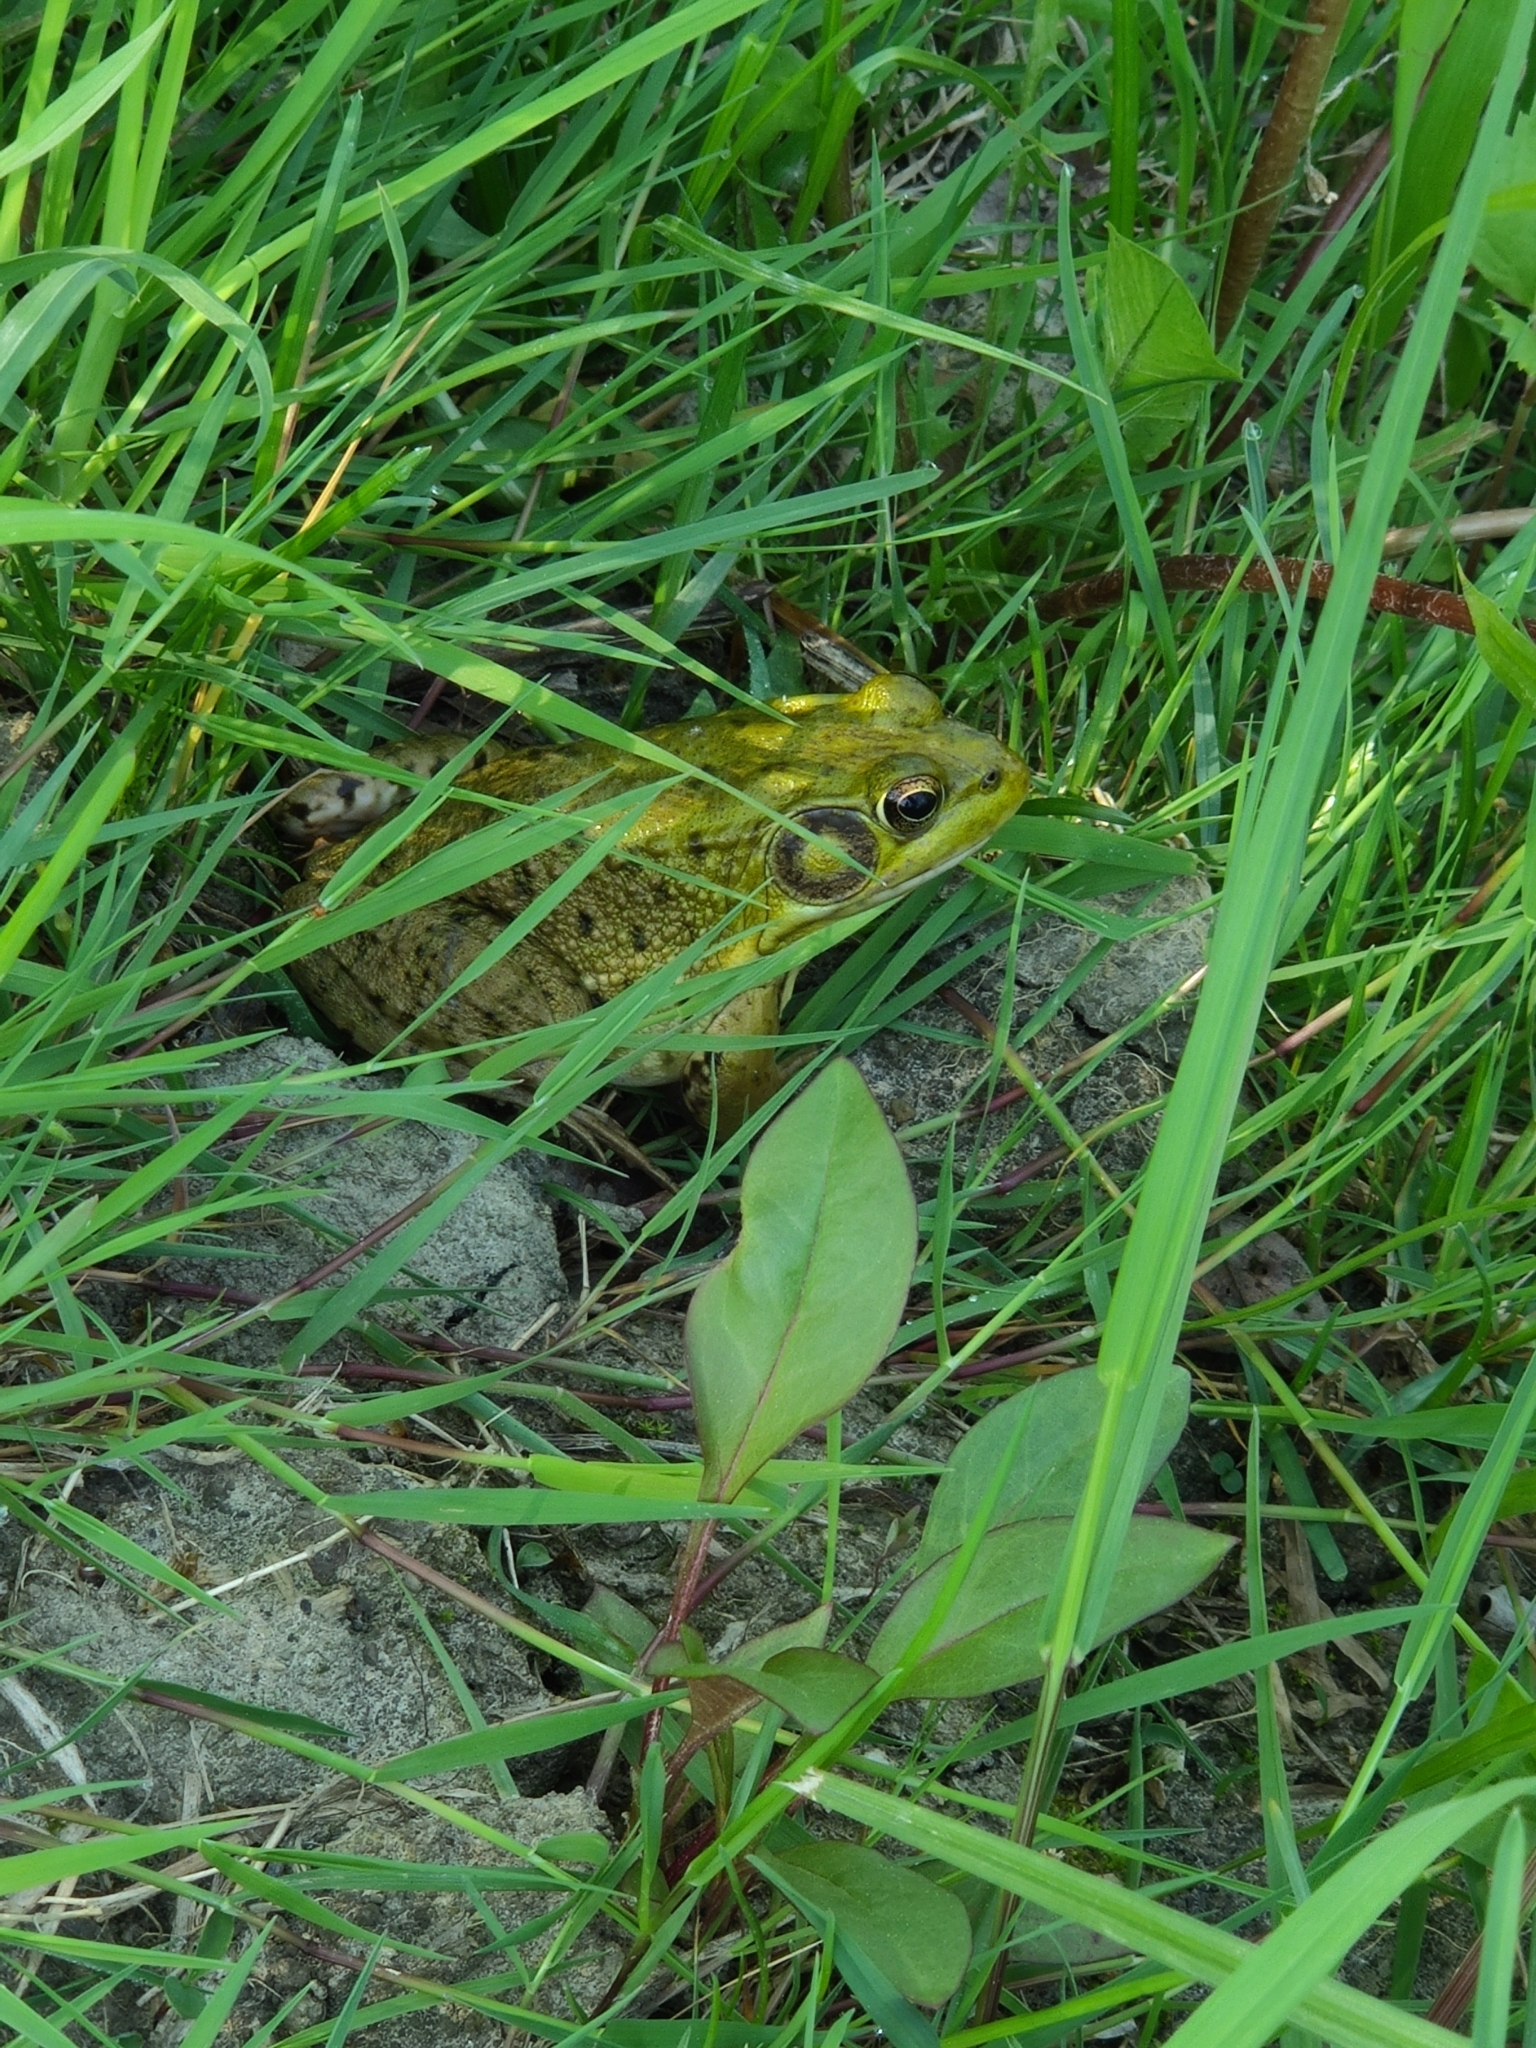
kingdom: Animalia
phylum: Chordata
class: Amphibia
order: Anura
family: Ranidae
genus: Lithobates
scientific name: Lithobates clamitans
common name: Green frog
